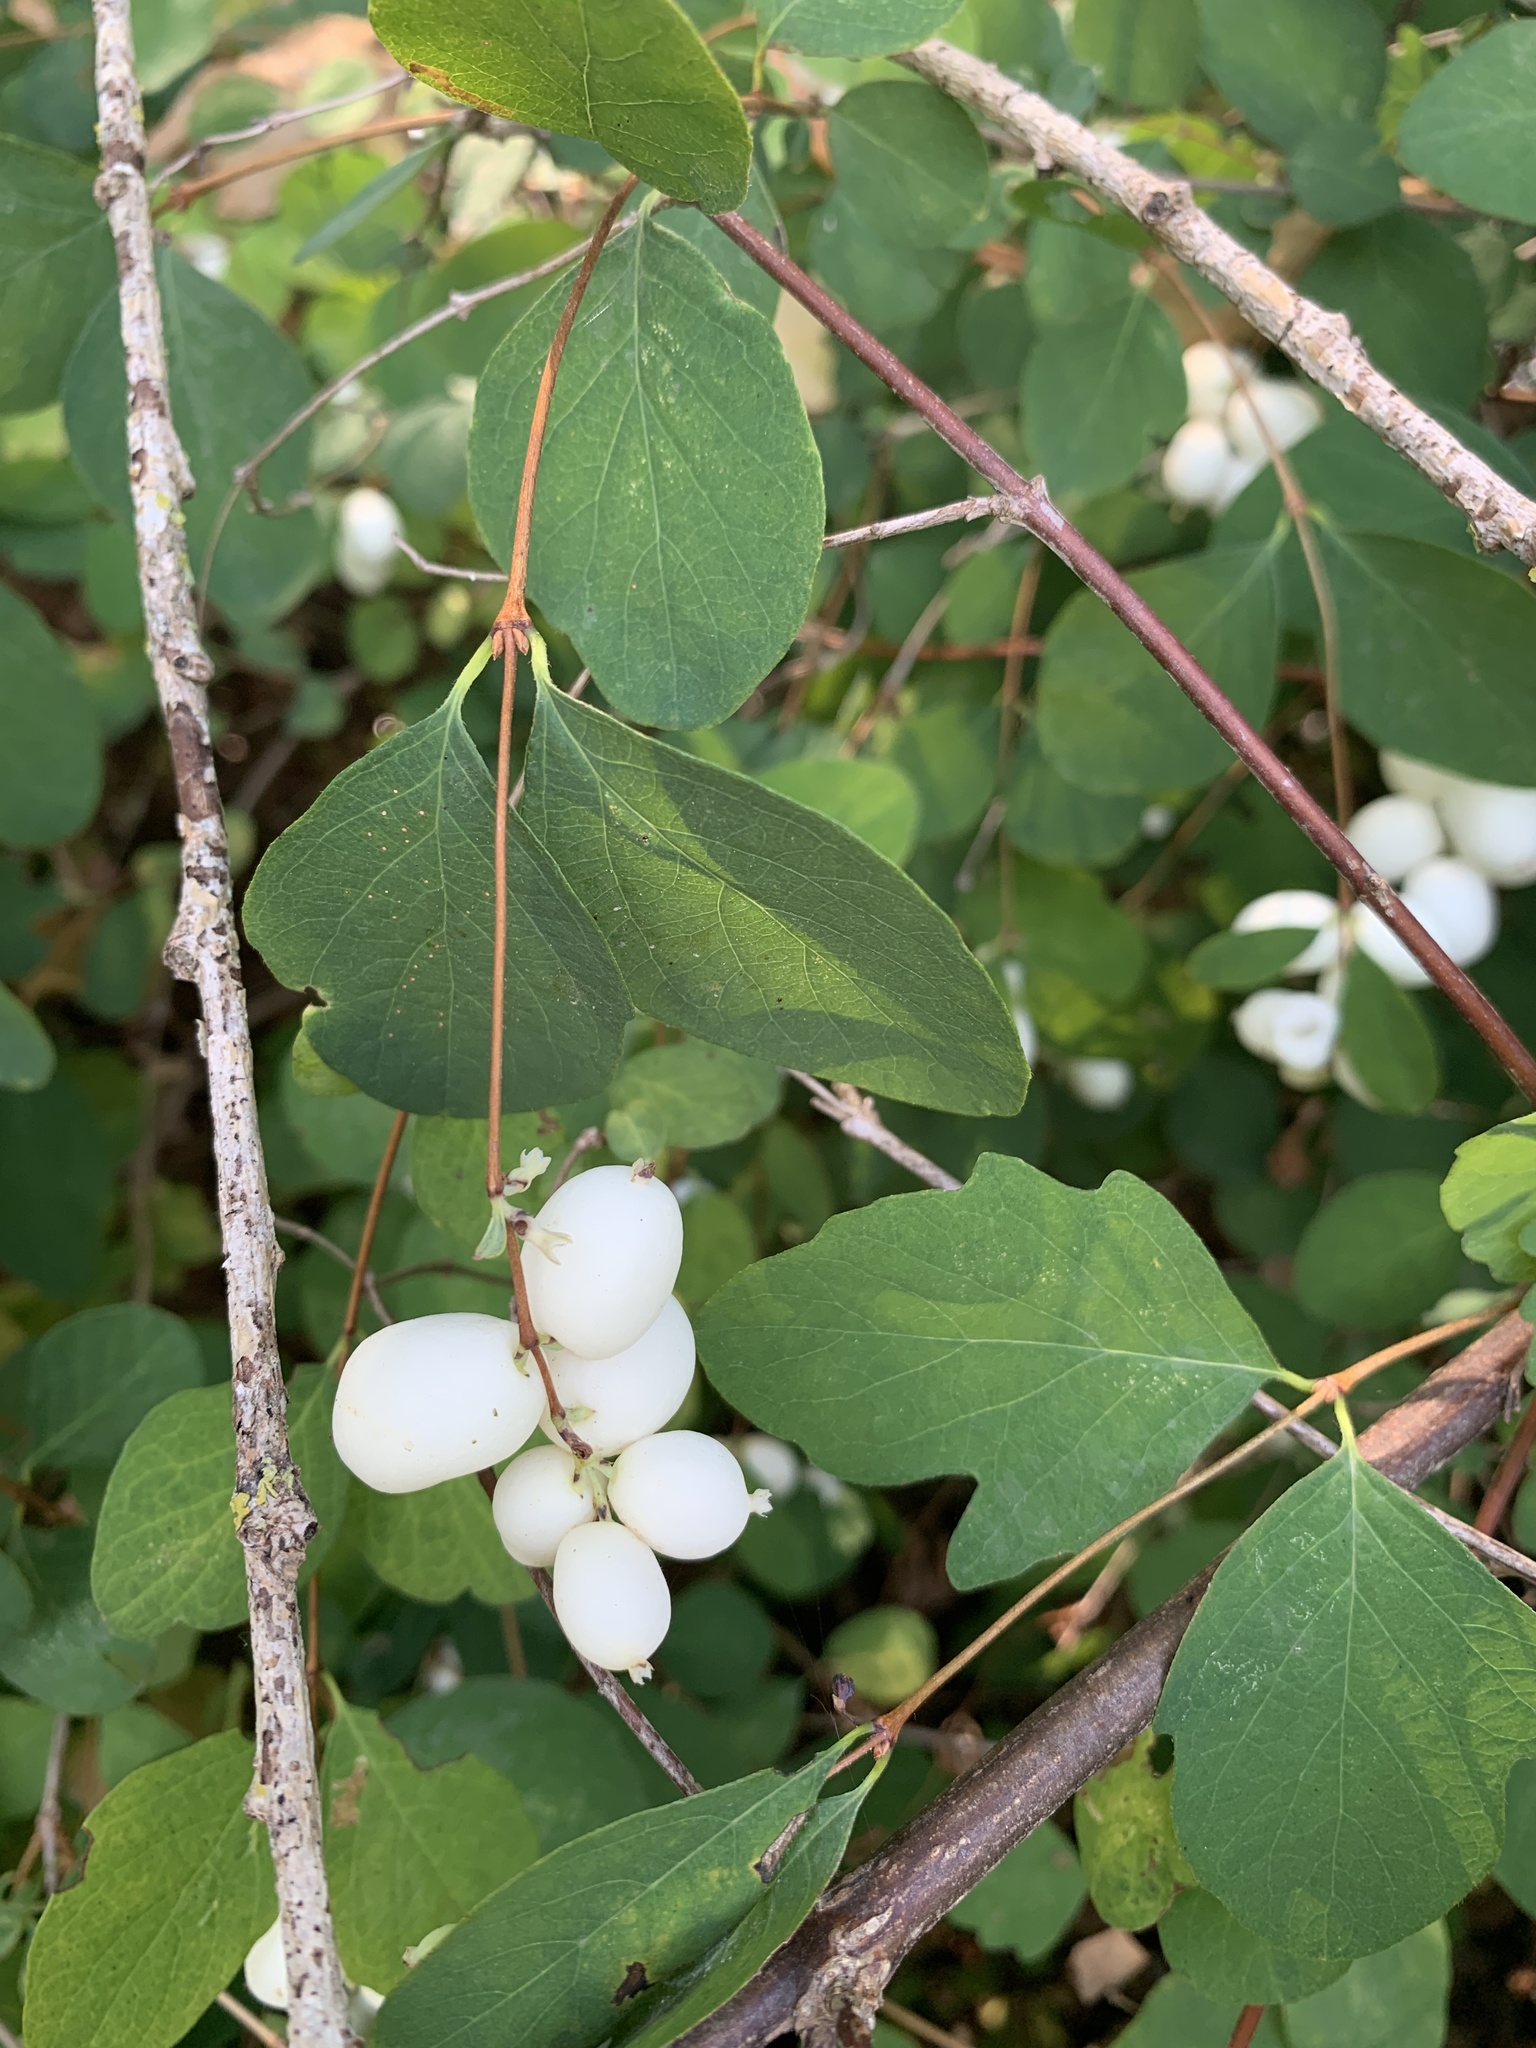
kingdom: Plantae
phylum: Tracheophyta
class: Magnoliopsida
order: Dipsacales
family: Caprifoliaceae
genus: Symphoricarpos
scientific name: Symphoricarpos albus
